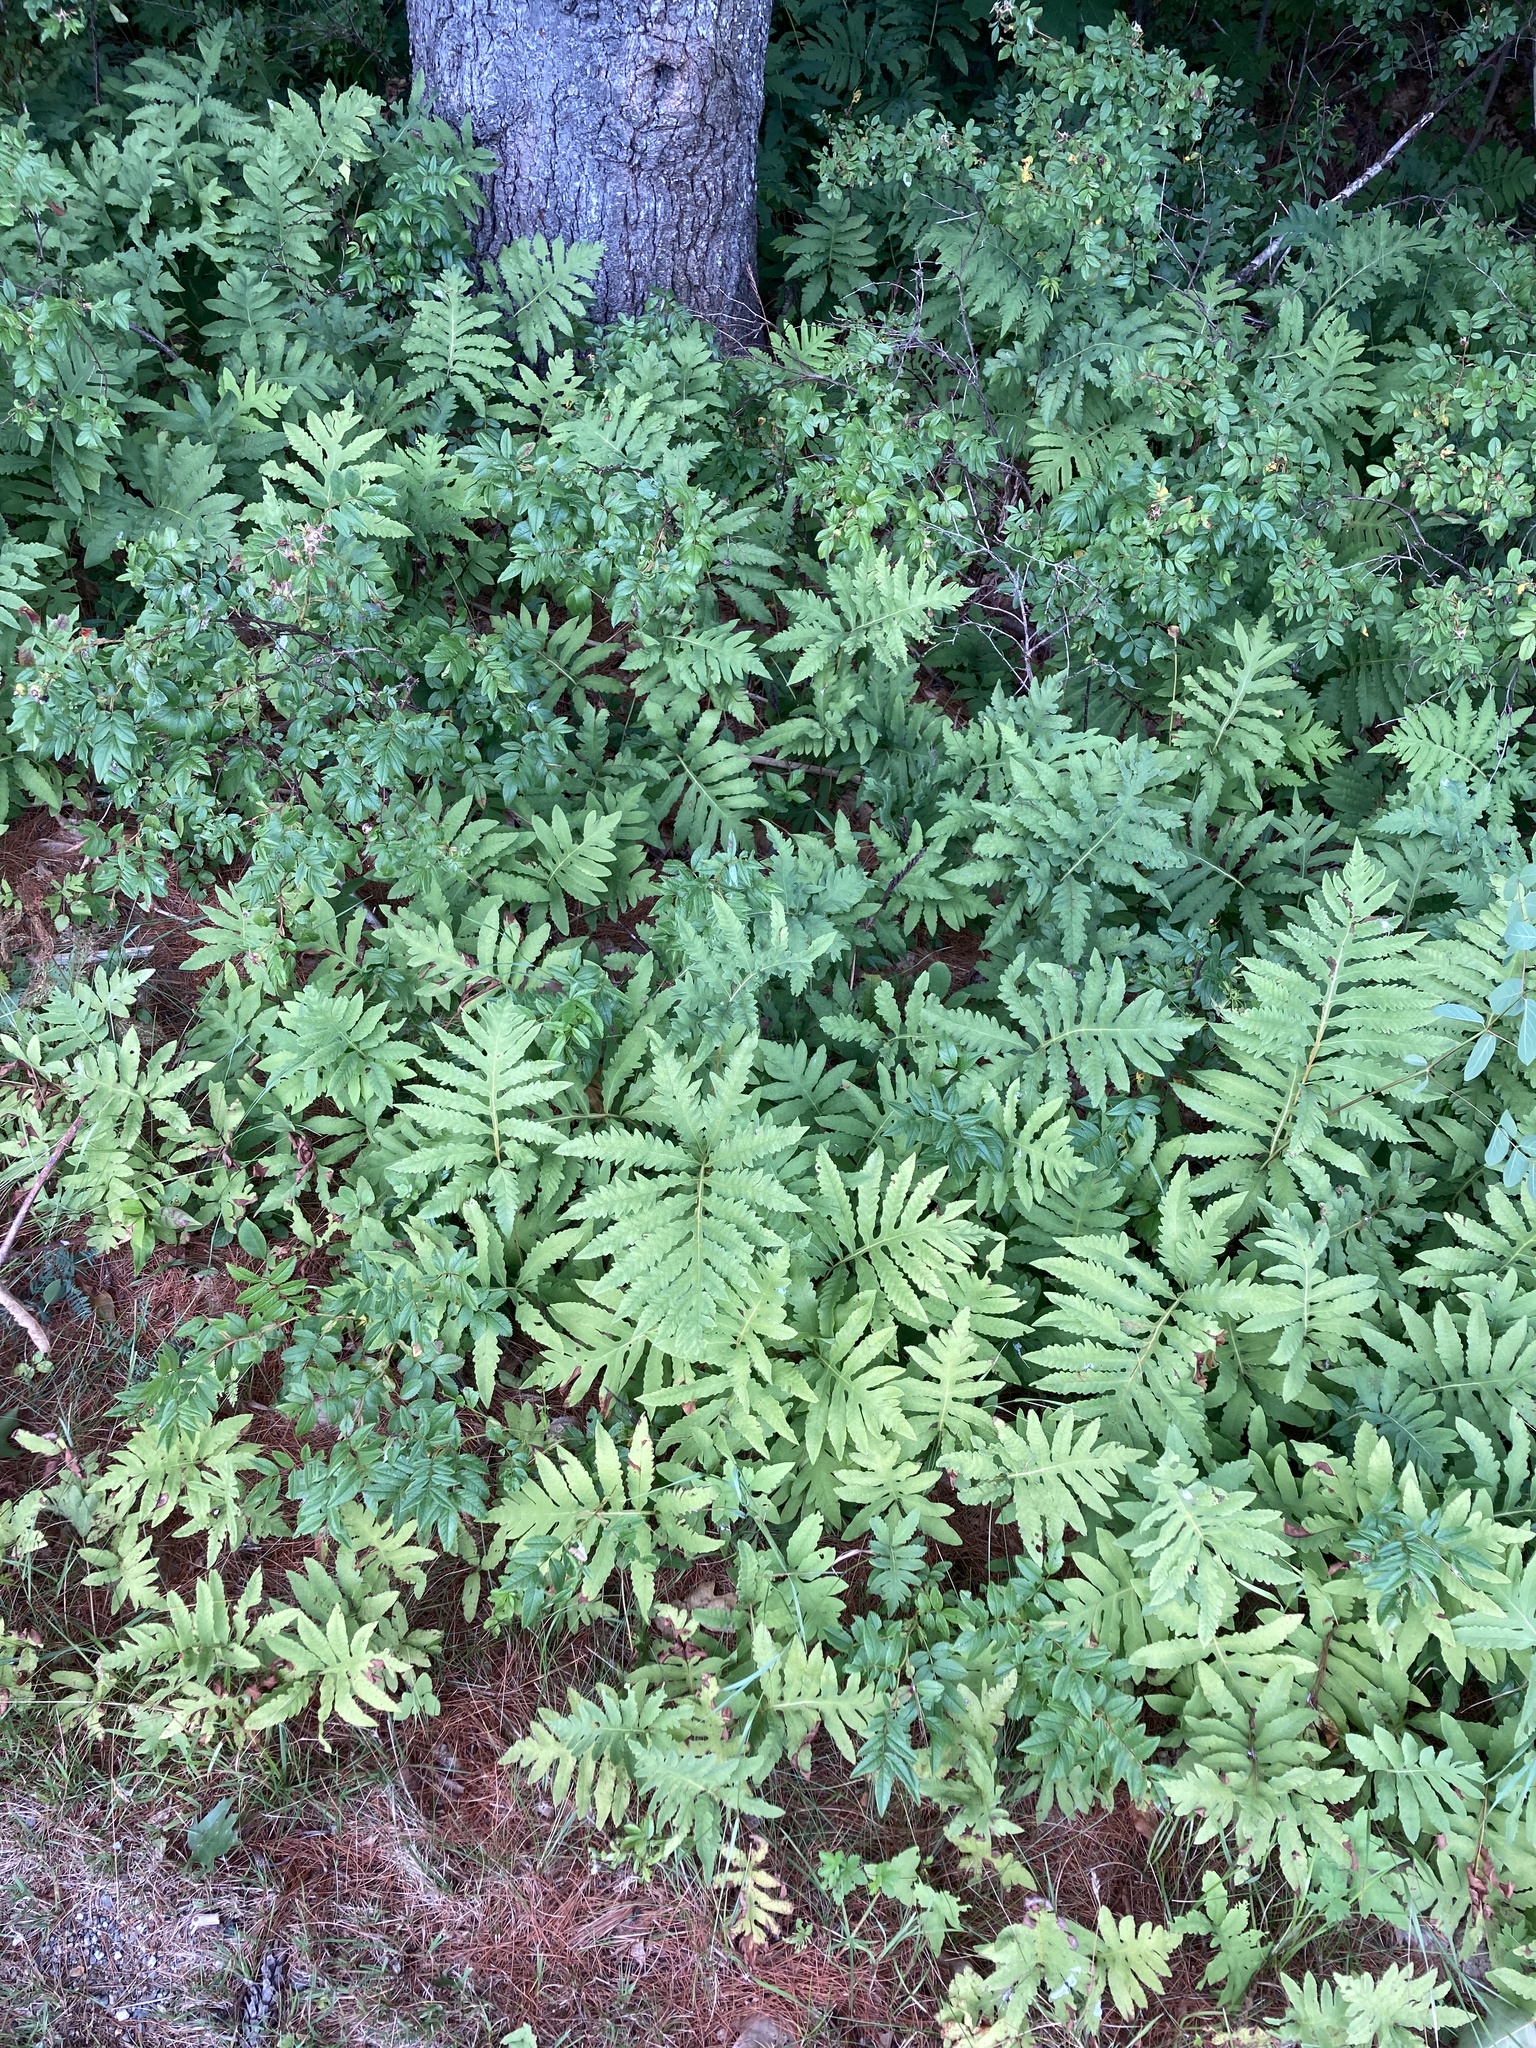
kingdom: Plantae
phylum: Tracheophyta
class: Polypodiopsida
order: Polypodiales
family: Onocleaceae
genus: Onoclea
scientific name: Onoclea sensibilis
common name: Sensitive fern
